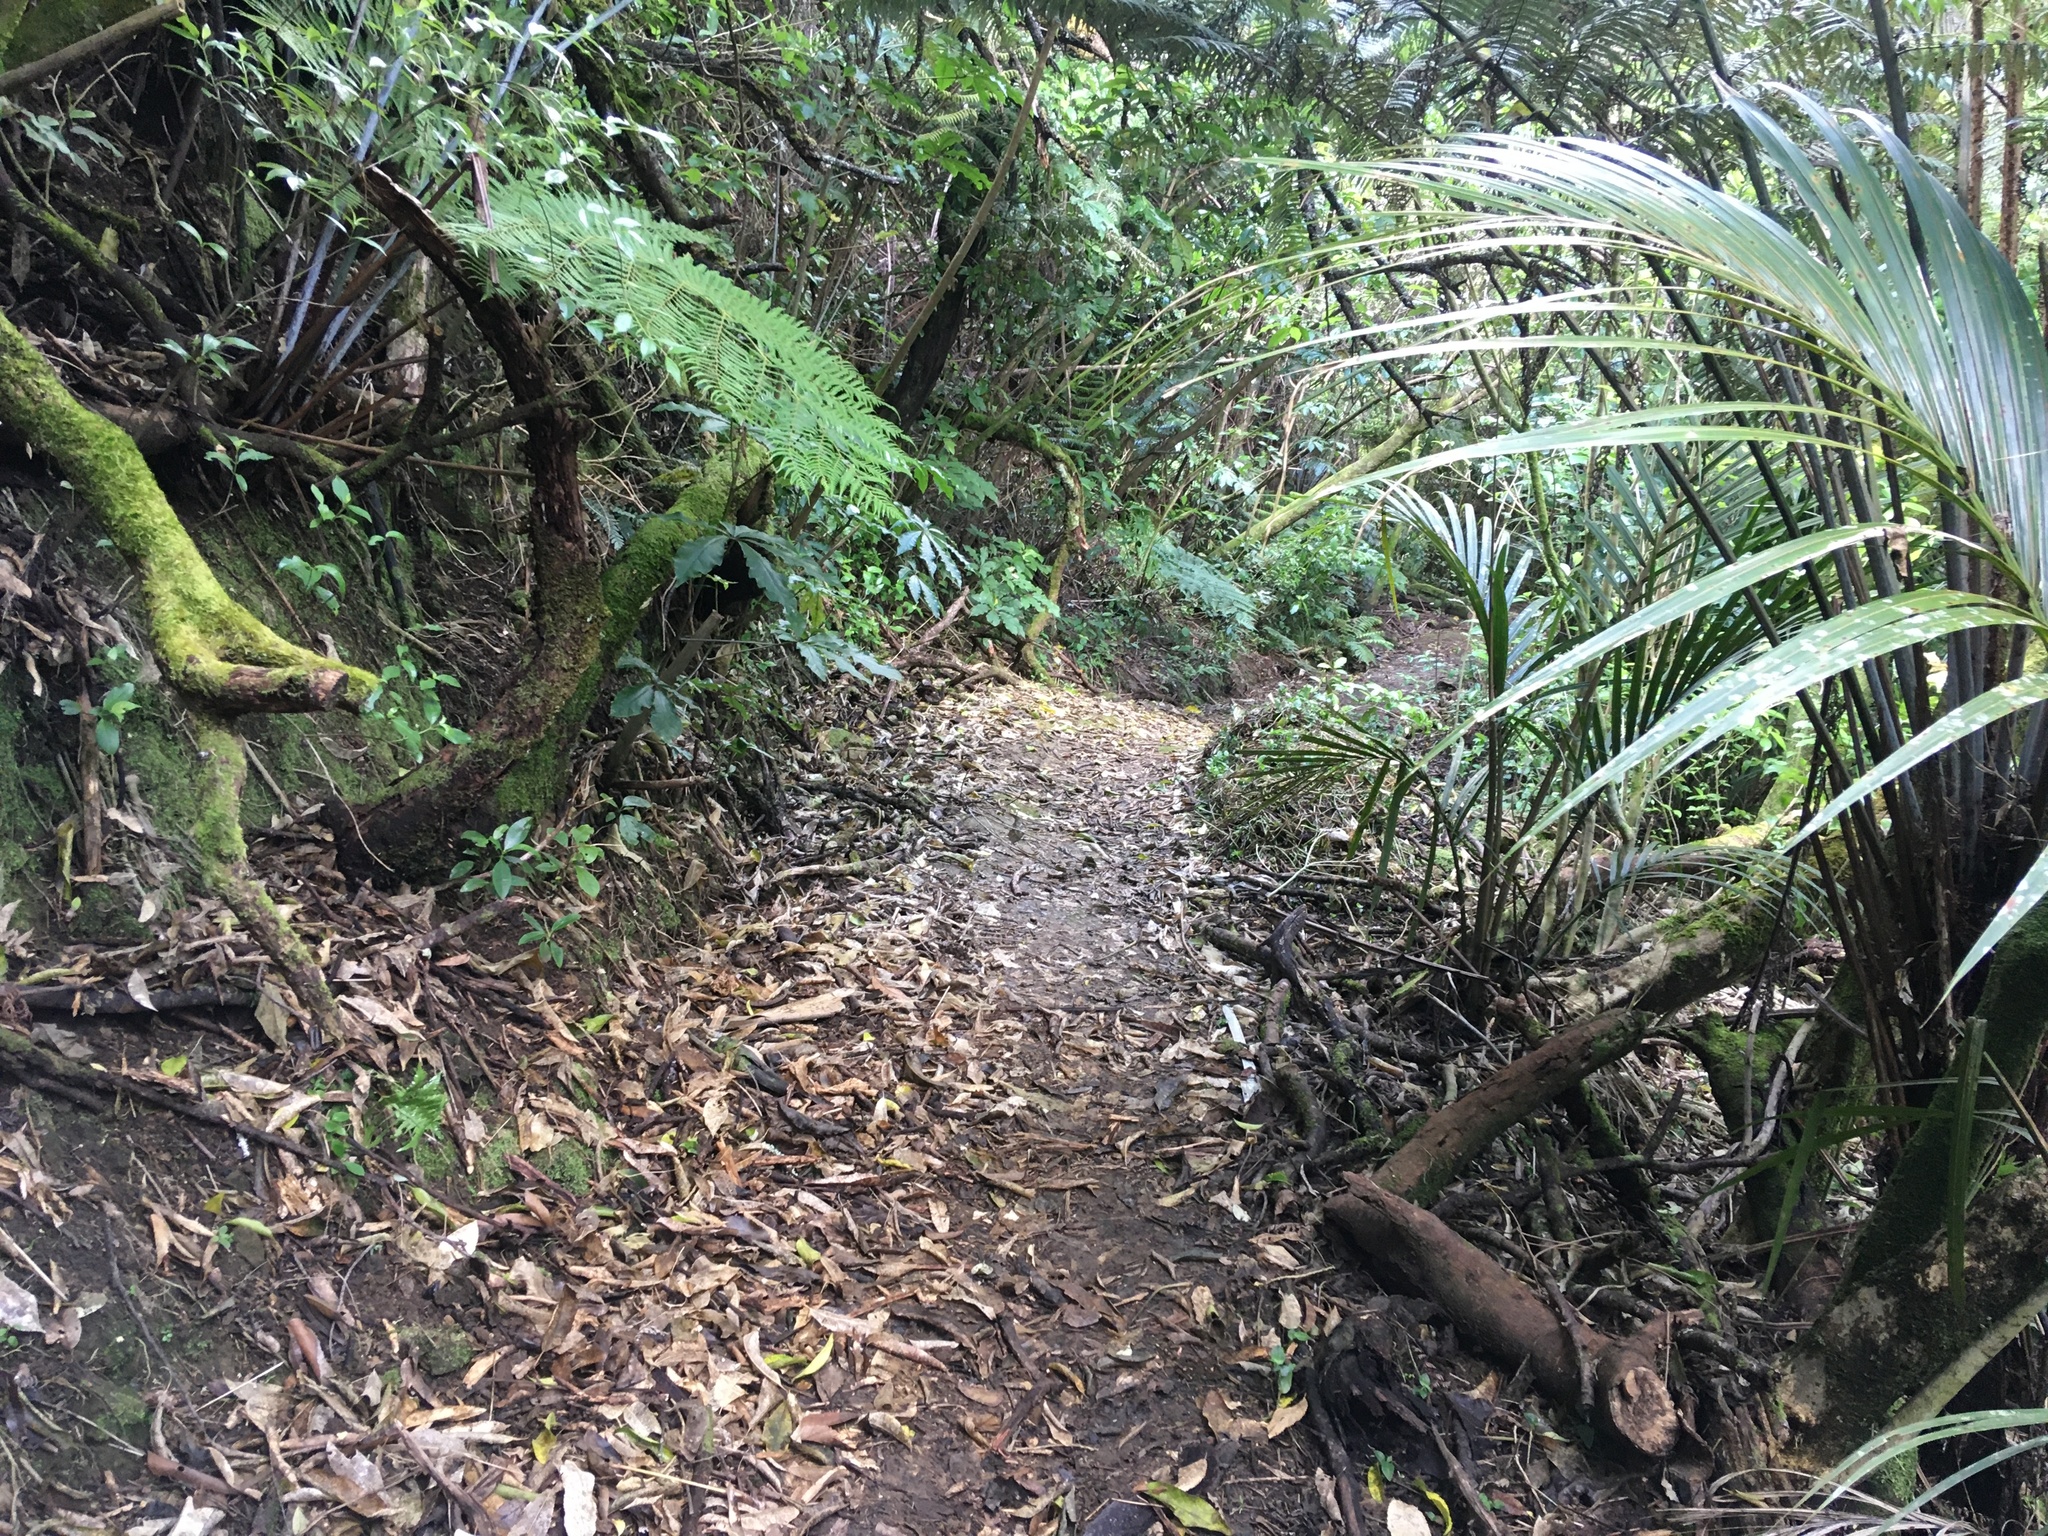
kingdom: Plantae
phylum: Tracheophyta
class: Liliopsida
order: Arecales
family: Arecaceae
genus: Rhopalostylis
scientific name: Rhopalostylis sapida
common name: Feather-duster palm
